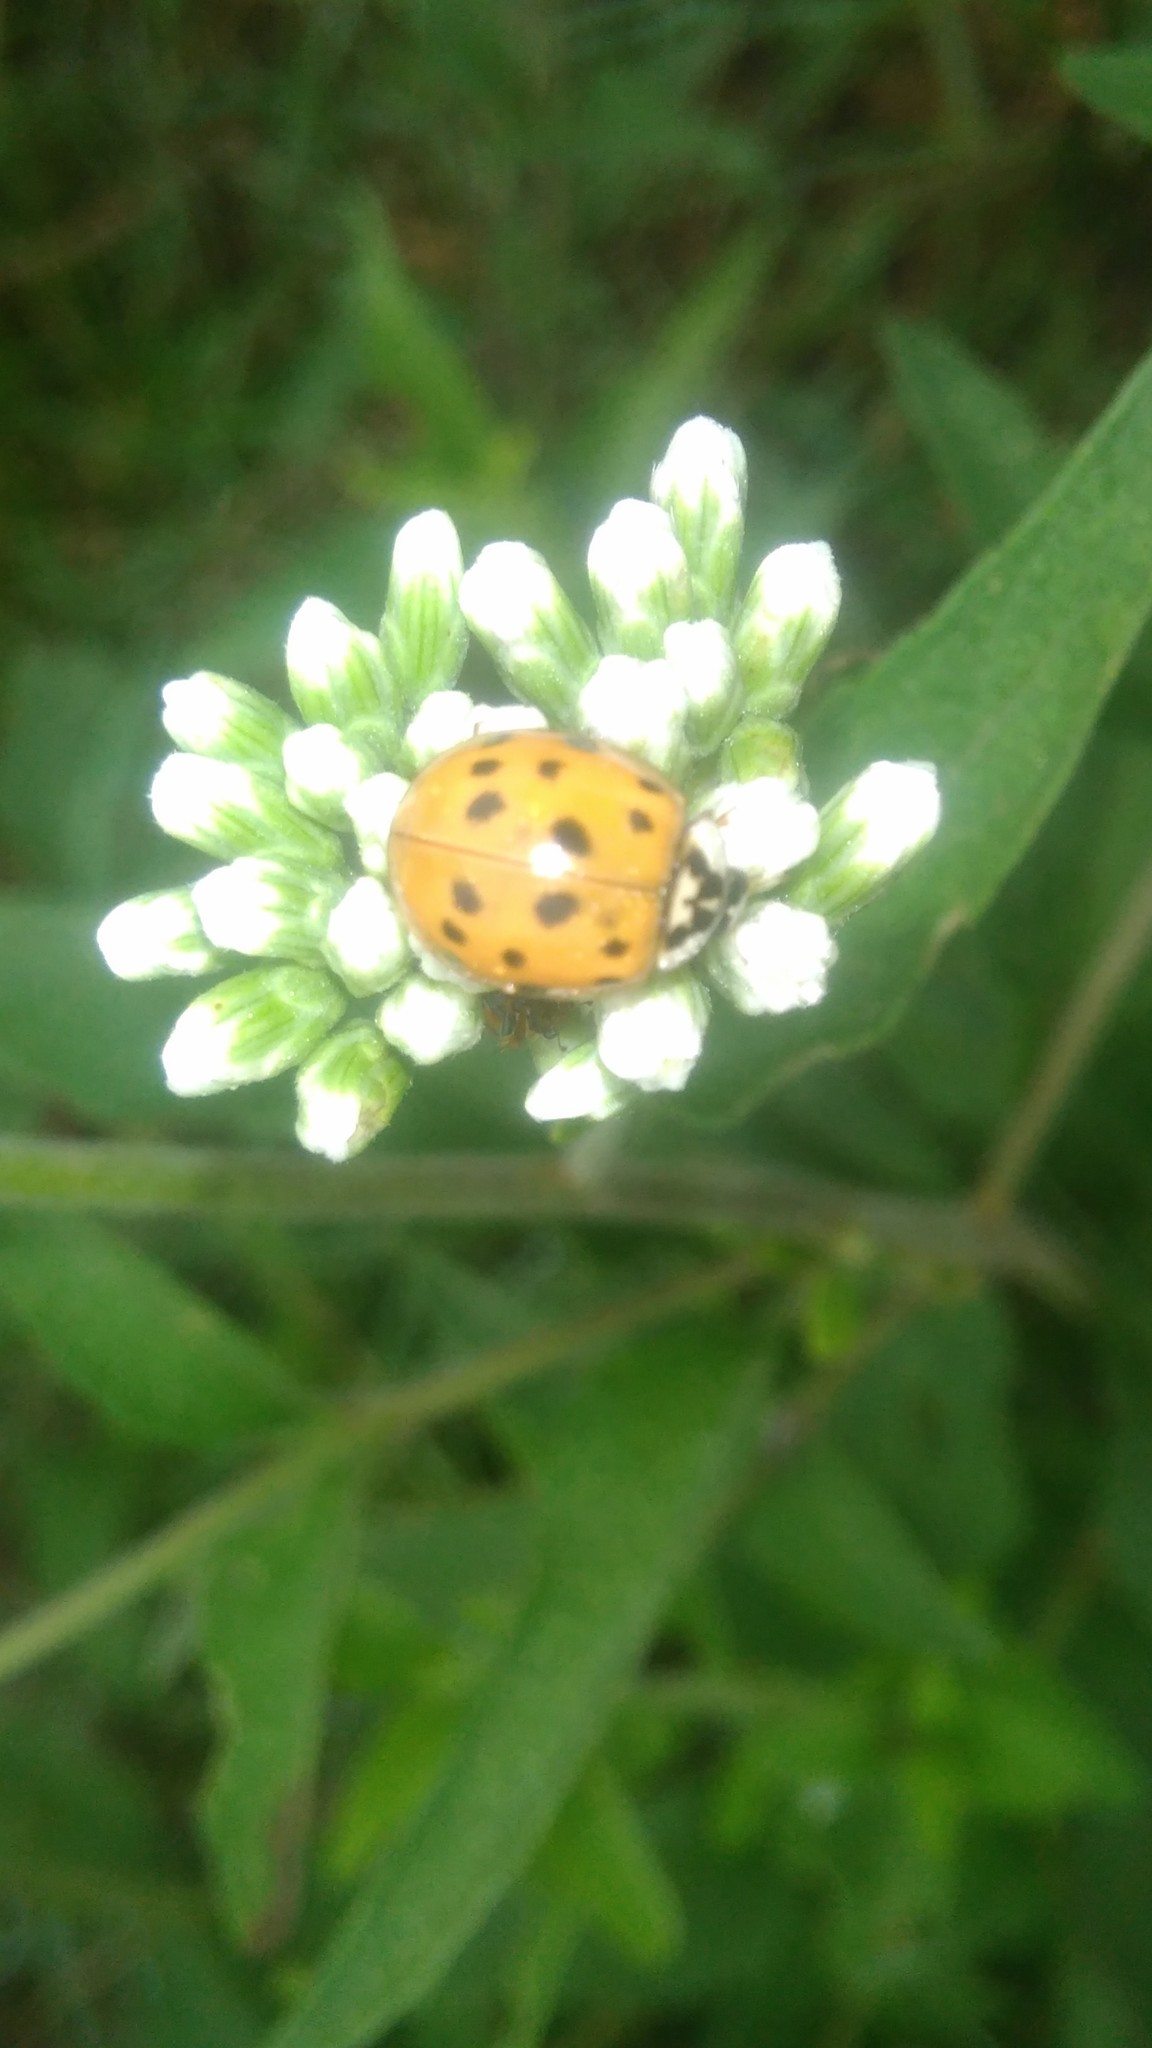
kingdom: Animalia
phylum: Arthropoda
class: Insecta
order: Coleoptera
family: Coccinellidae
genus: Harmonia
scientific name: Harmonia axyridis
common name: Harlequin ladybird
